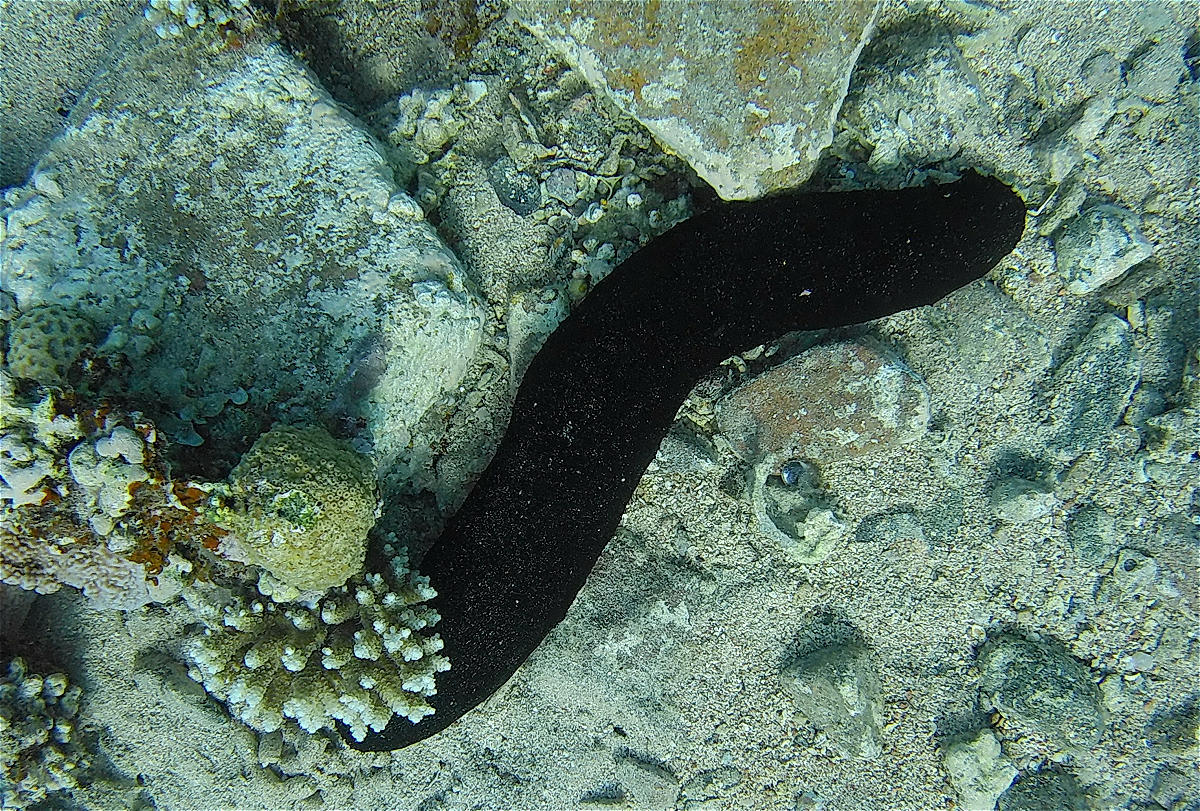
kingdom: Animalia
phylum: Echinodermata
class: Holothuroidea
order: Holothuriida
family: Holothuriidae
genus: Holothuria
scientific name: Holothuria atra
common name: Lollyfish
